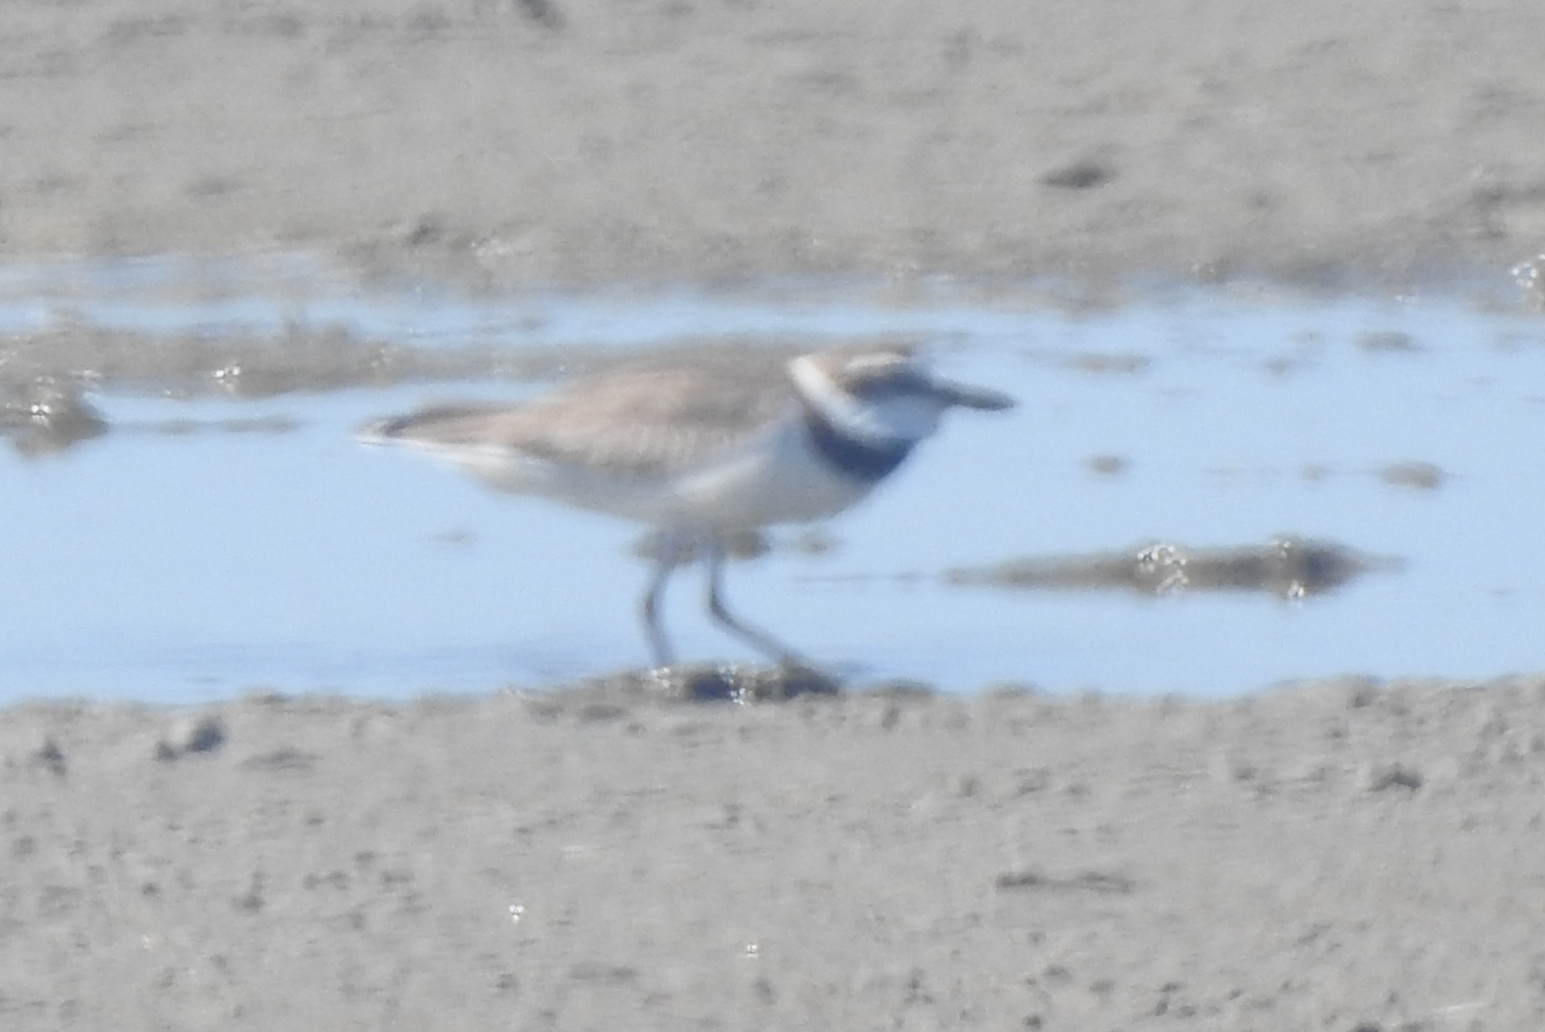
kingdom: Animalia
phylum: Chordata
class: Aves
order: Charadriiformes
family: Charadriidae
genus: Anarhynchus
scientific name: Anarhynchus
